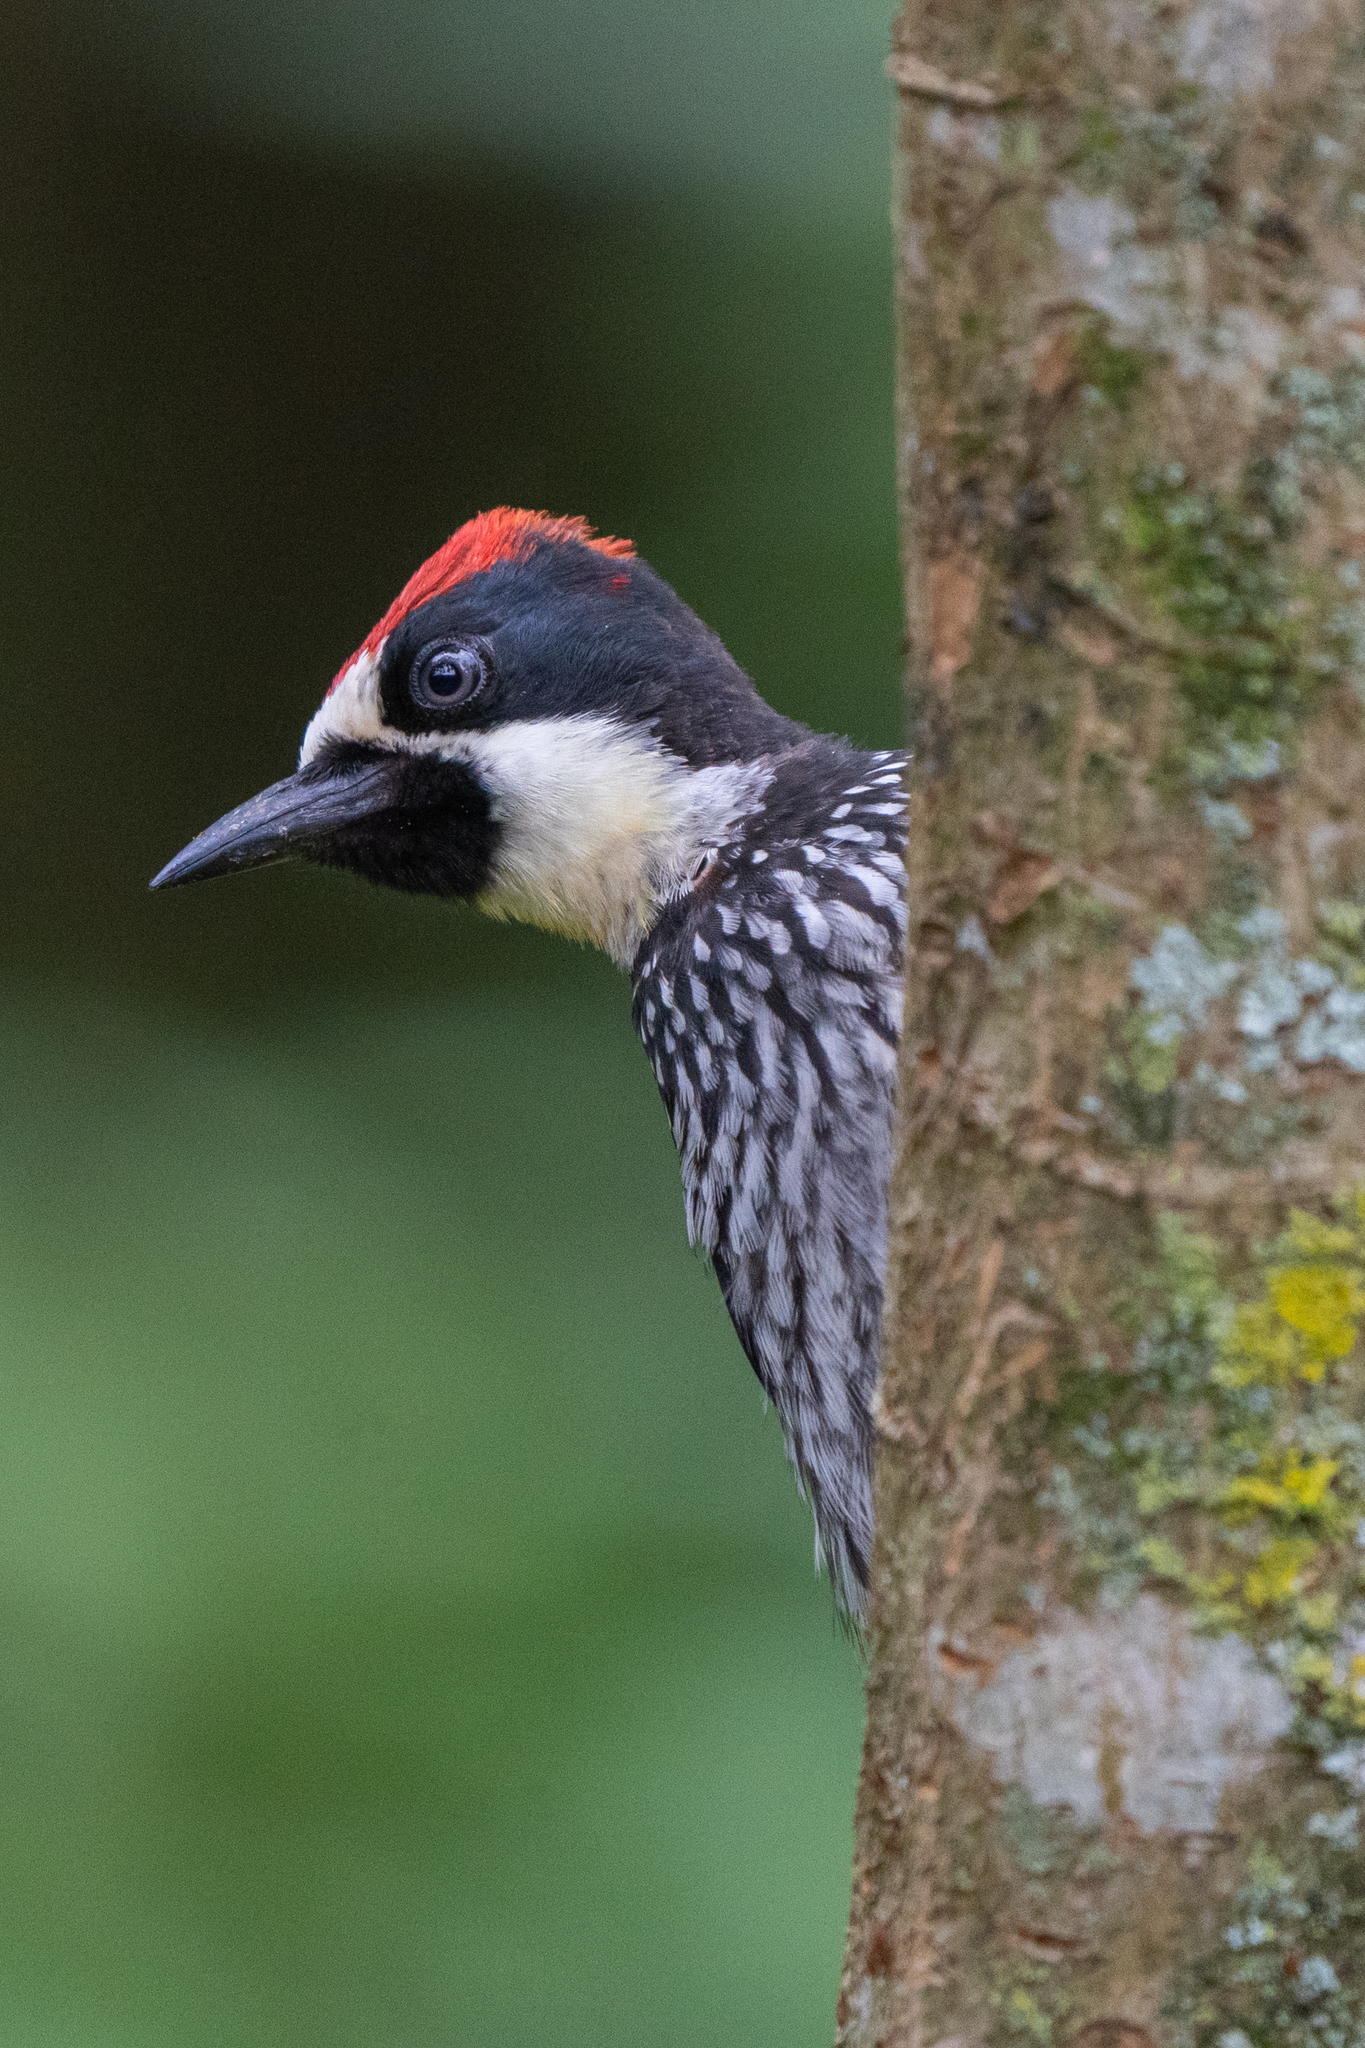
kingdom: Animalia
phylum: Chordata
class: Aves
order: Piciformes
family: Picidae
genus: Melanerpes
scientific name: Melanerpes formicivorus
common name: Acorn woodpecker
